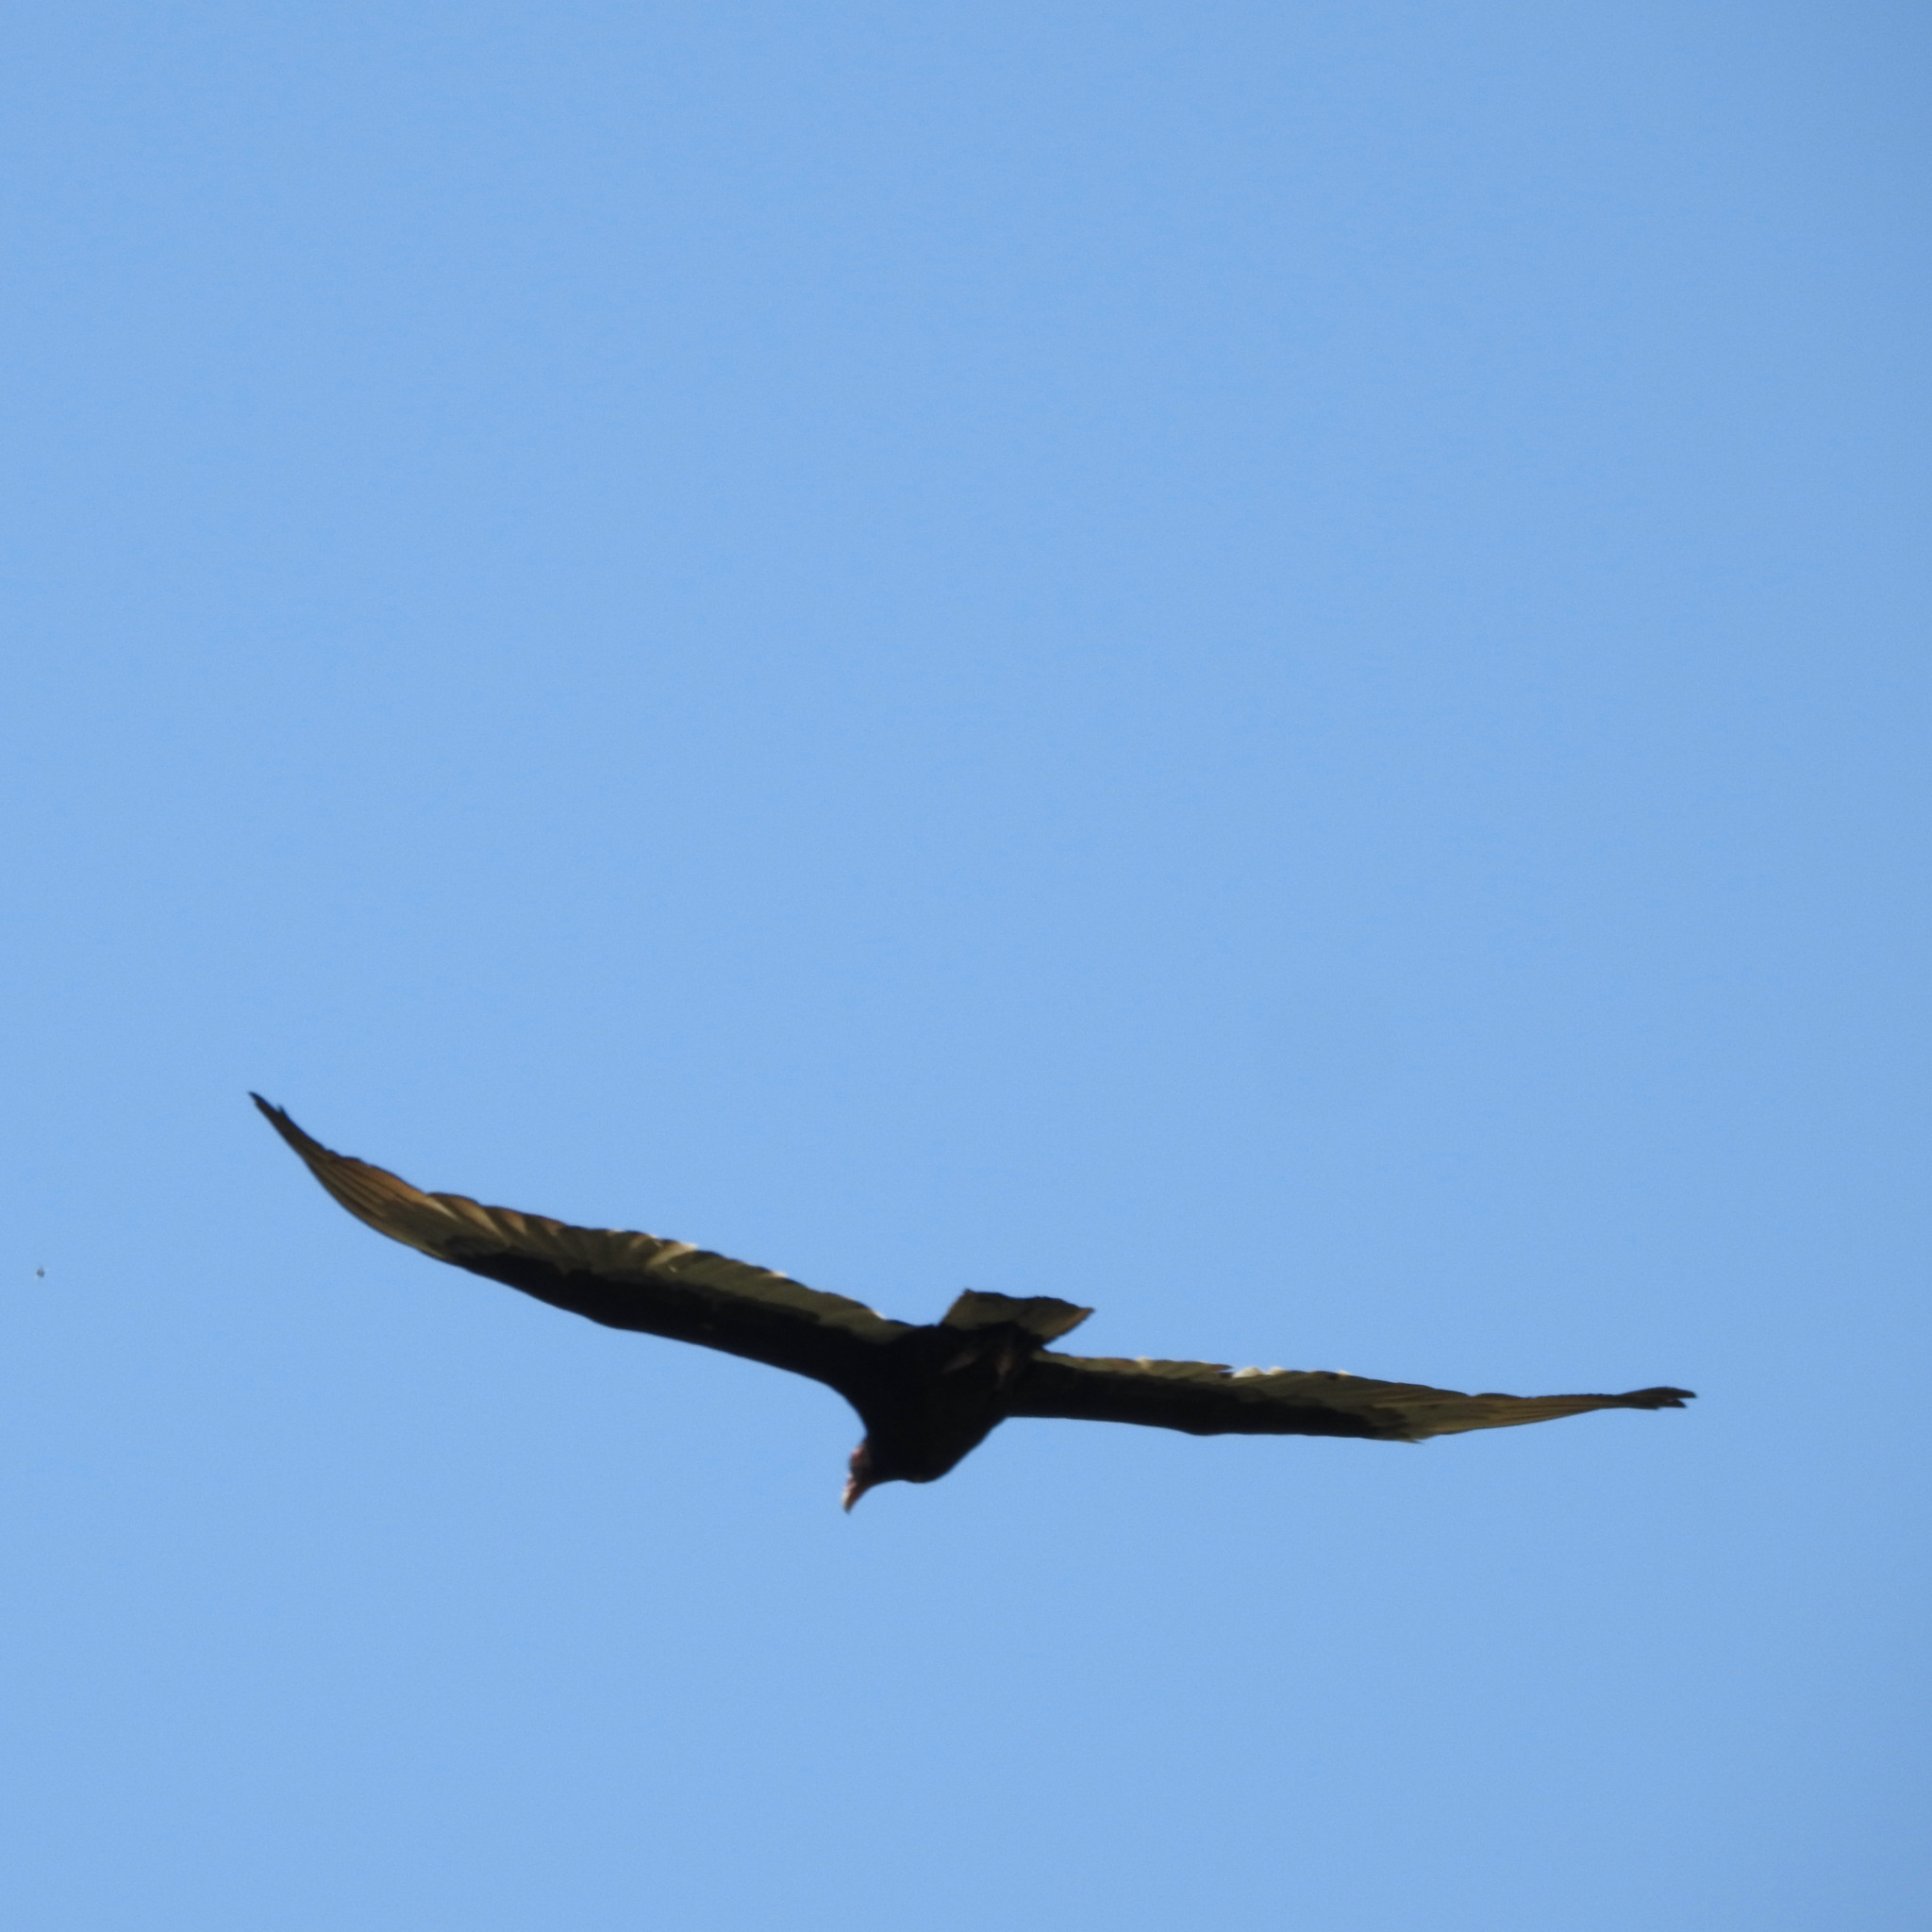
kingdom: Animalia
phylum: Chordata
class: Aves
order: Accipitriformes
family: Cathartidae
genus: Cathartes
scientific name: Cathartes aura
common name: Turkey vulture
